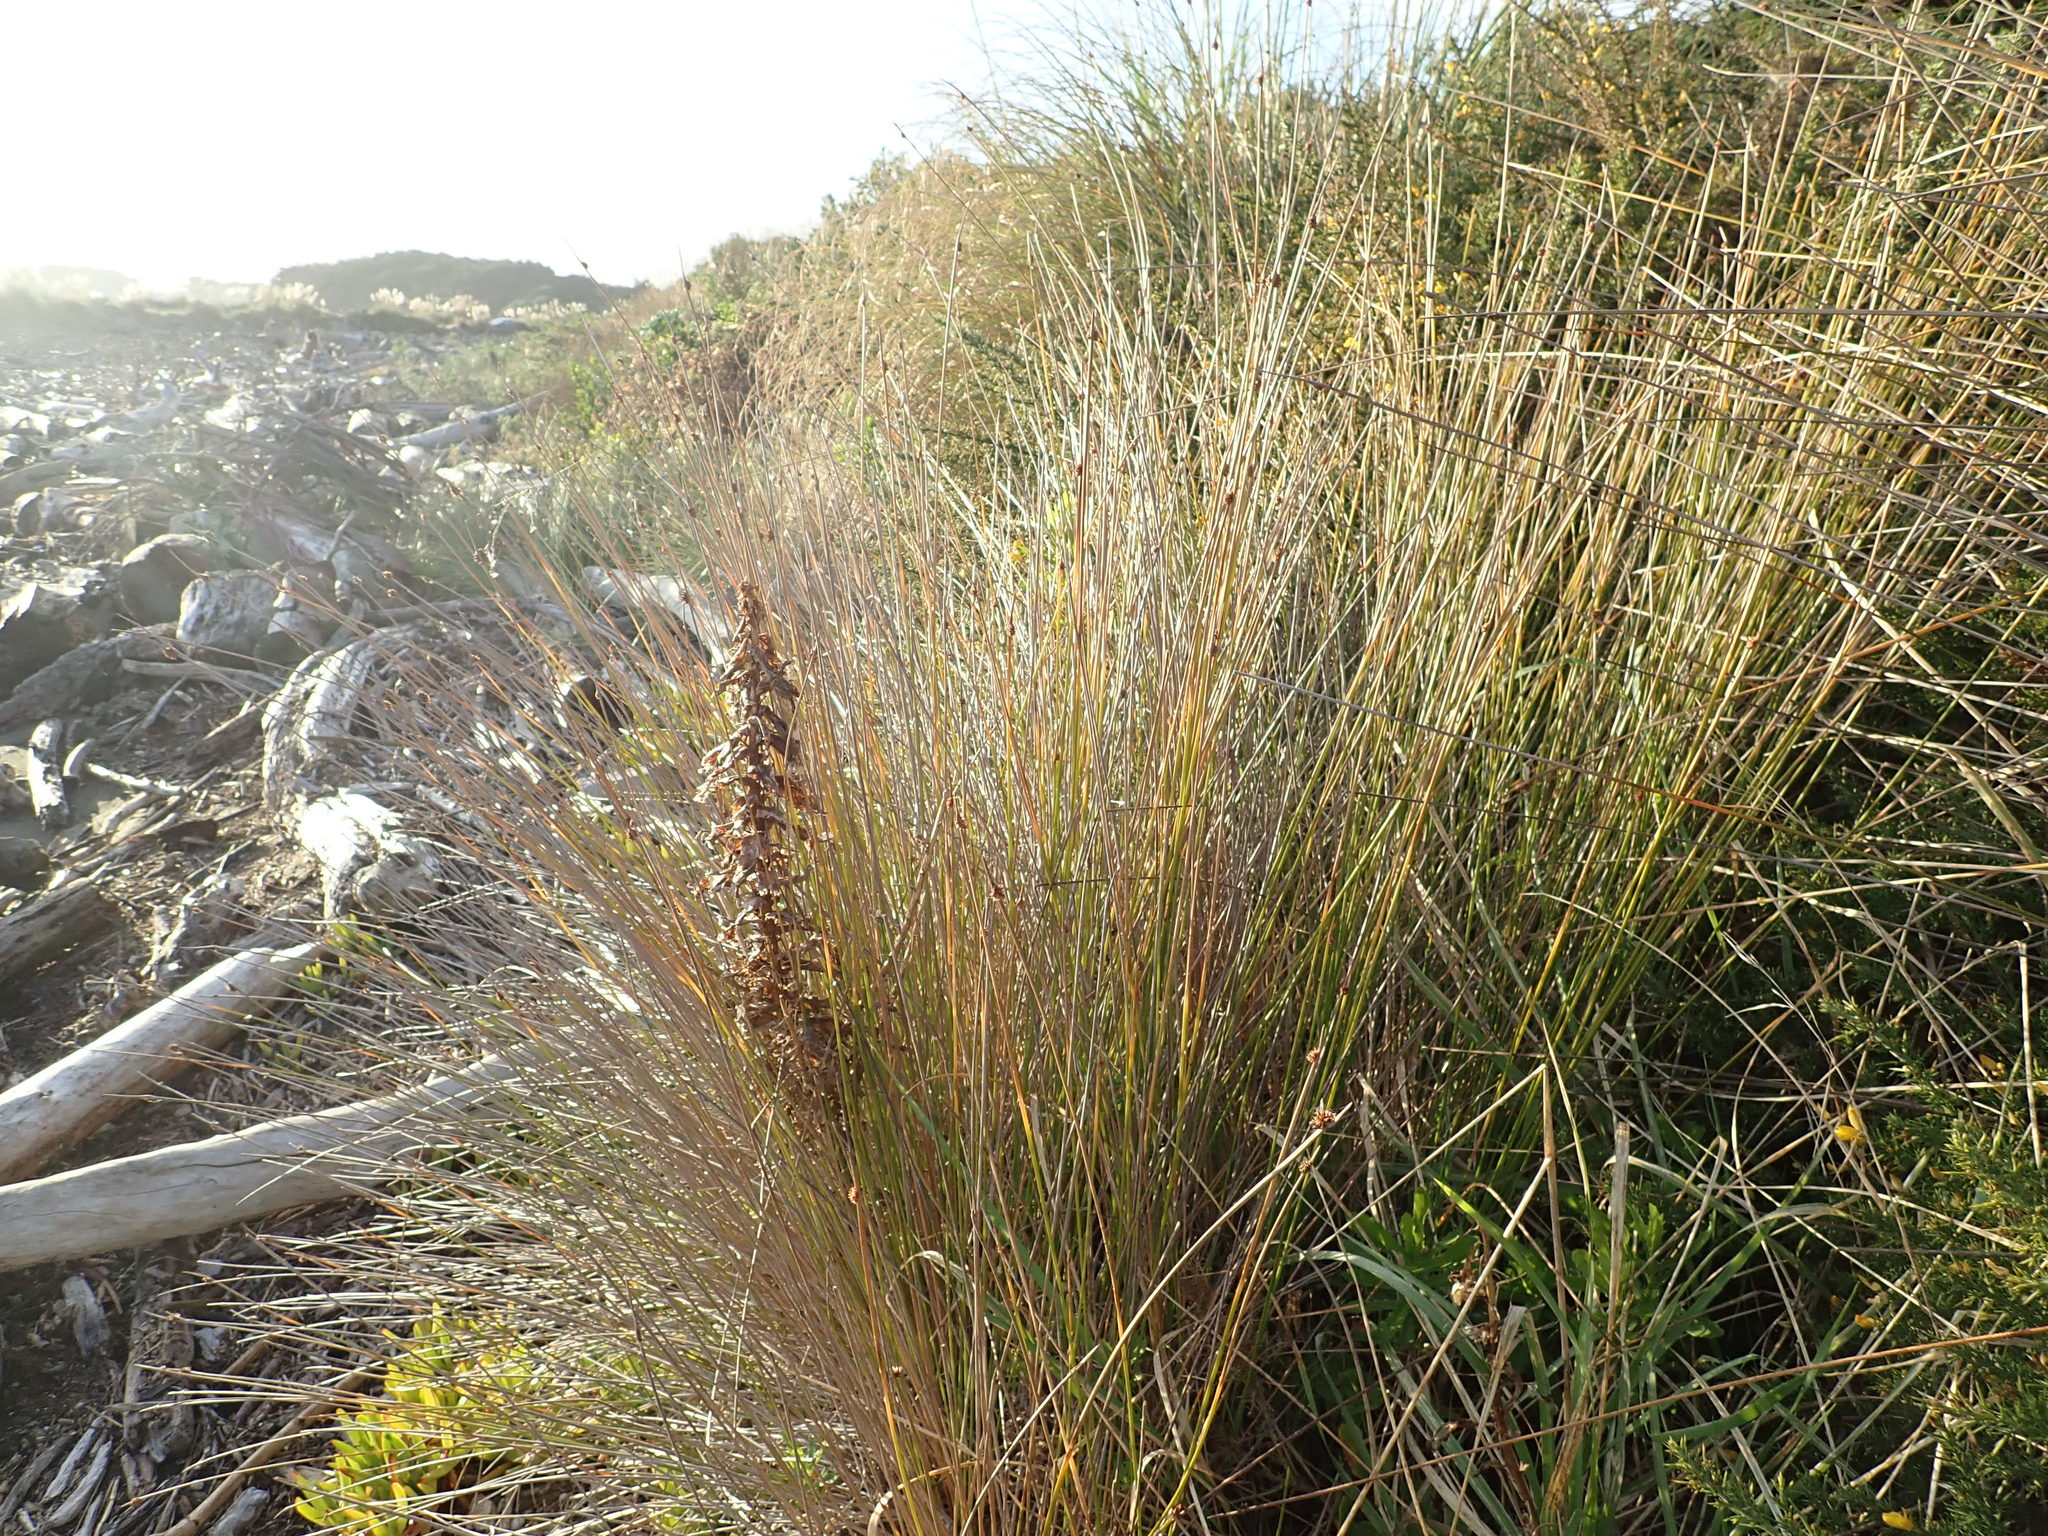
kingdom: Plantae
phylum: Tracheophyta
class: Liliopsida
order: Poales
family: Cyperaceae
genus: Ficinia
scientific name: Ficinia nodosa
